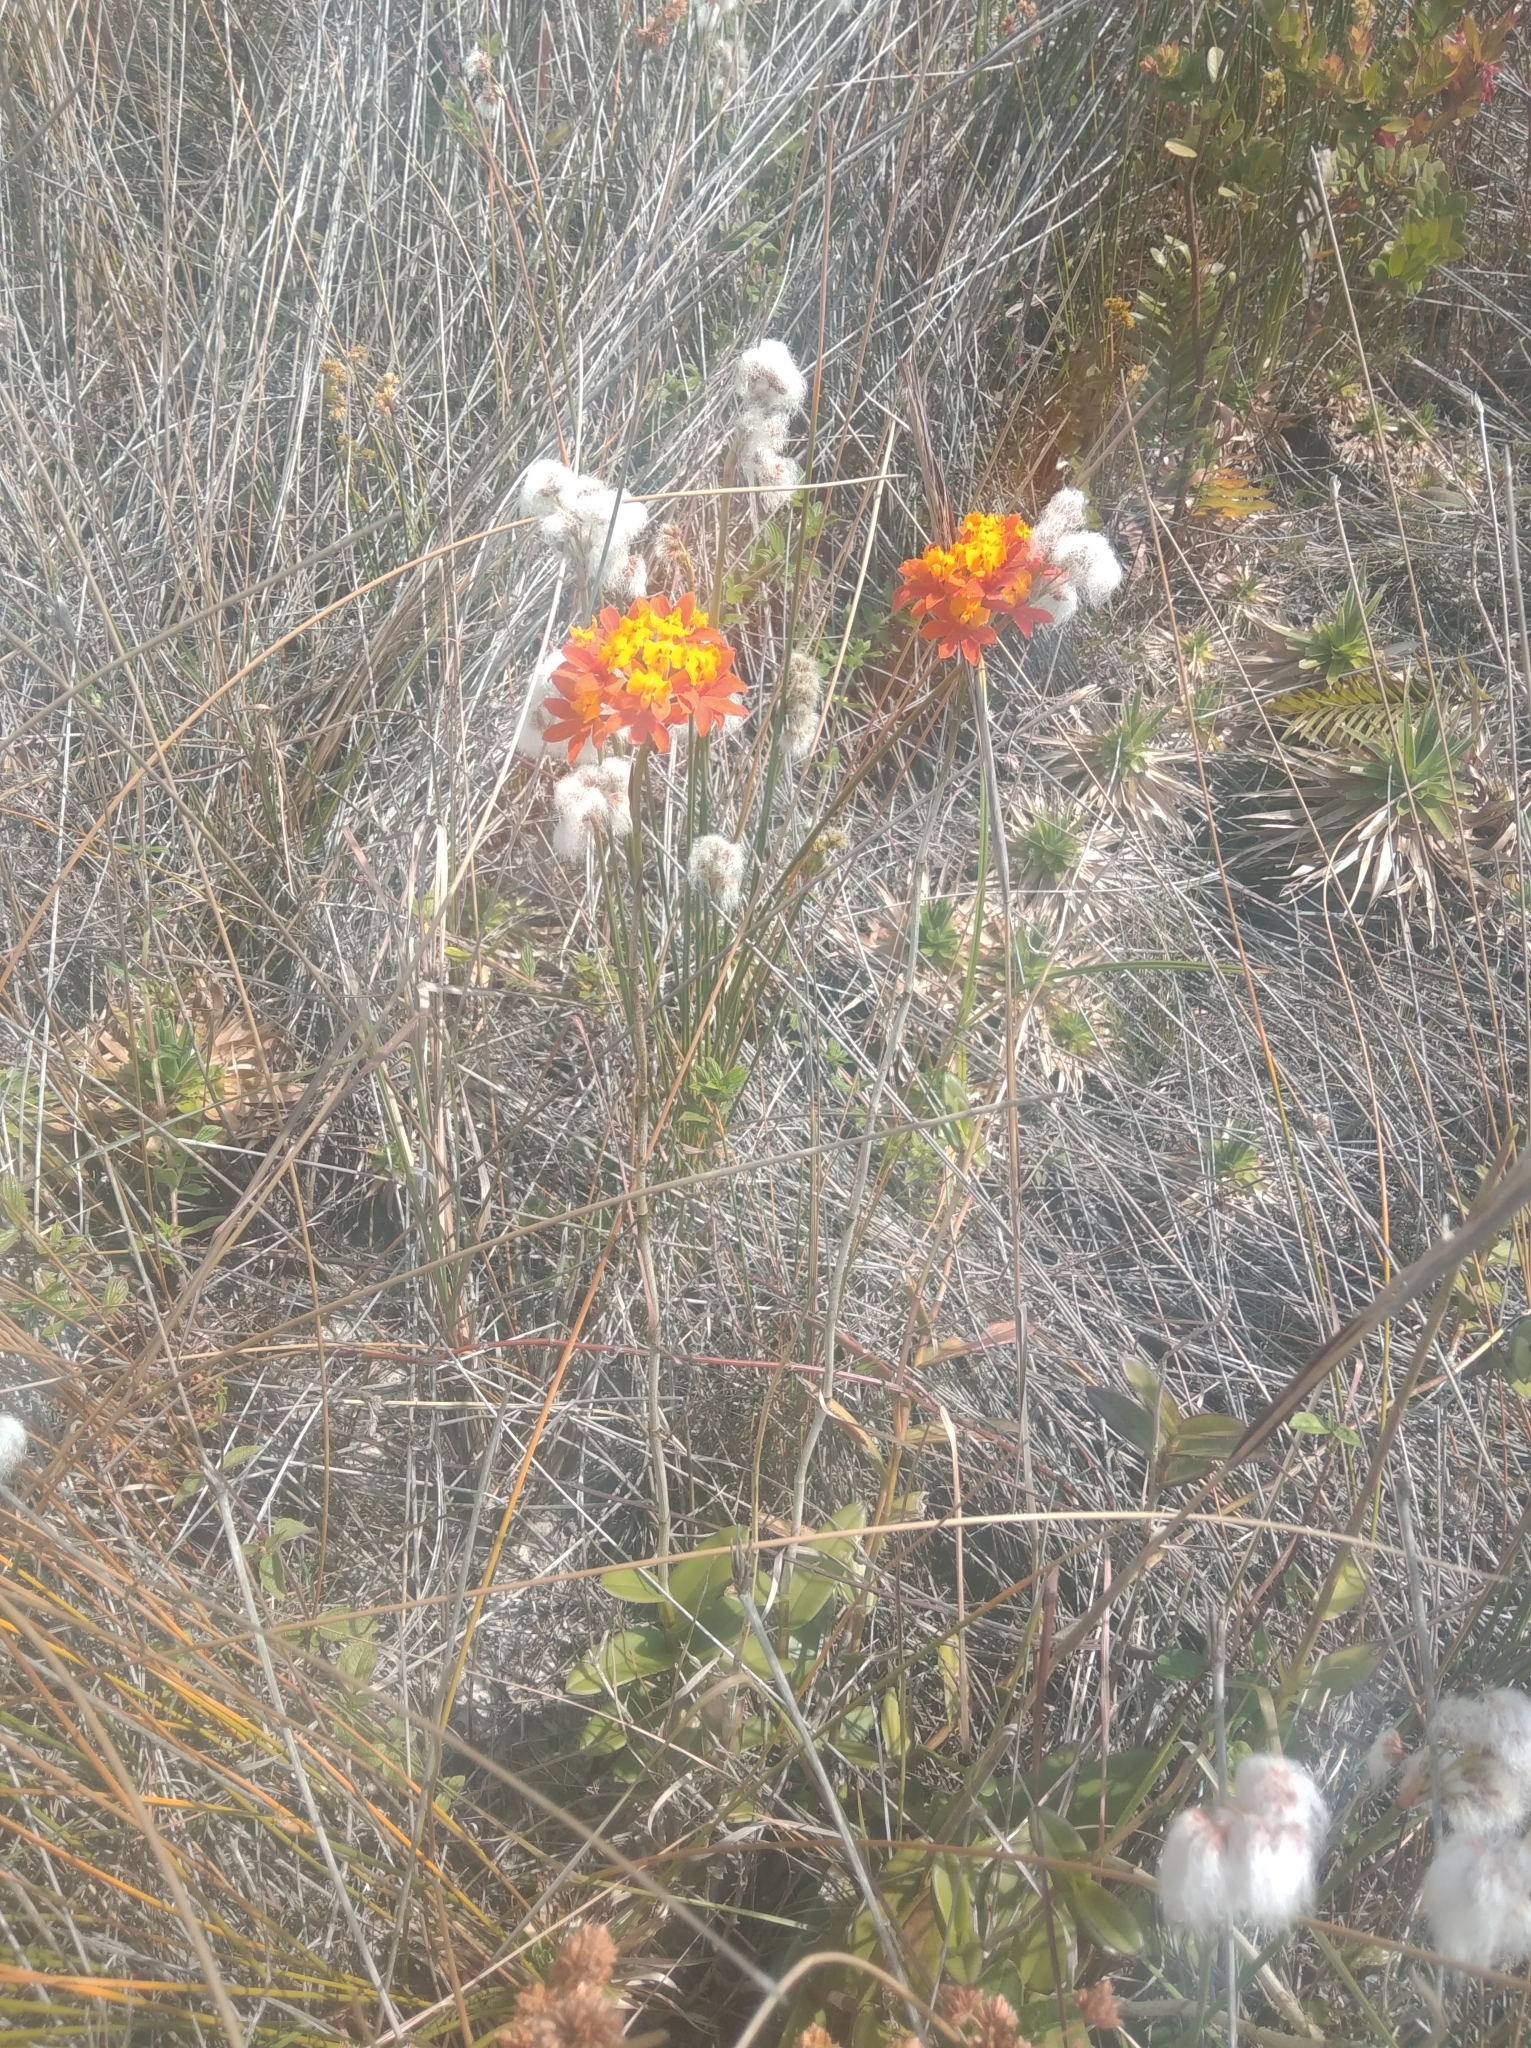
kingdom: Plantae
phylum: Tracheophyta
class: Liliopsida
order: Asparagales
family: Orchidaceae
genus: Epidendrum
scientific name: Epidendrum fulgens
